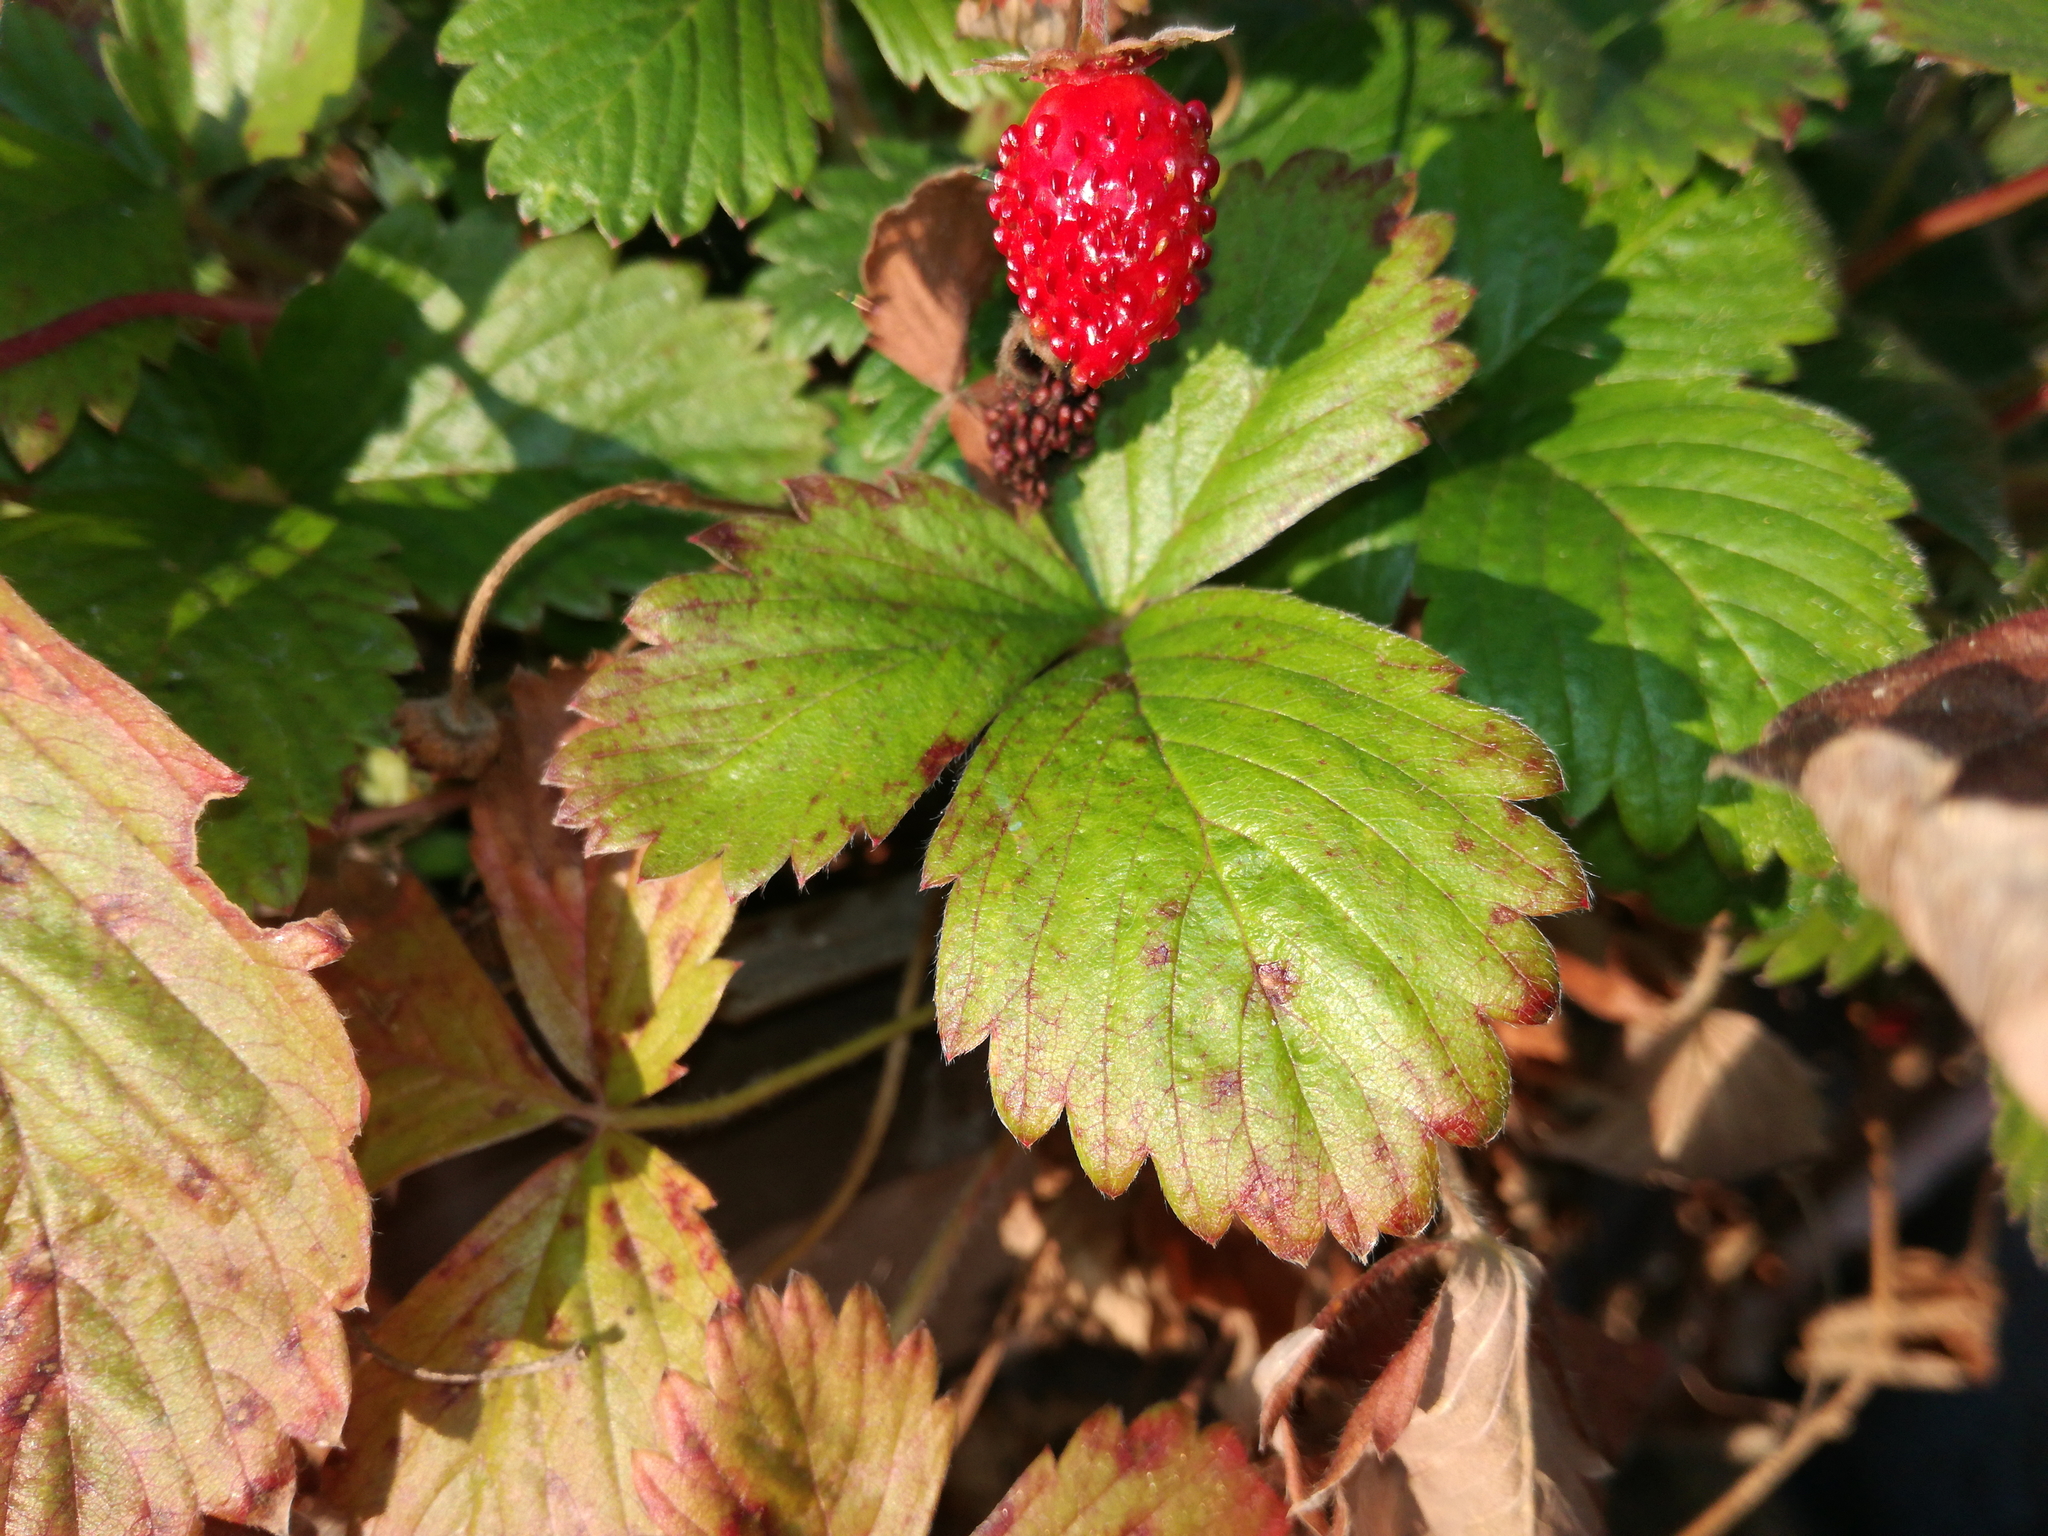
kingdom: Plantae
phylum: Tracheophyta
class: Magnoliopsida
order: Rosales
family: Rosaceae
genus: Fragaria
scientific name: Fragaria vesca
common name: Wild strawberry
